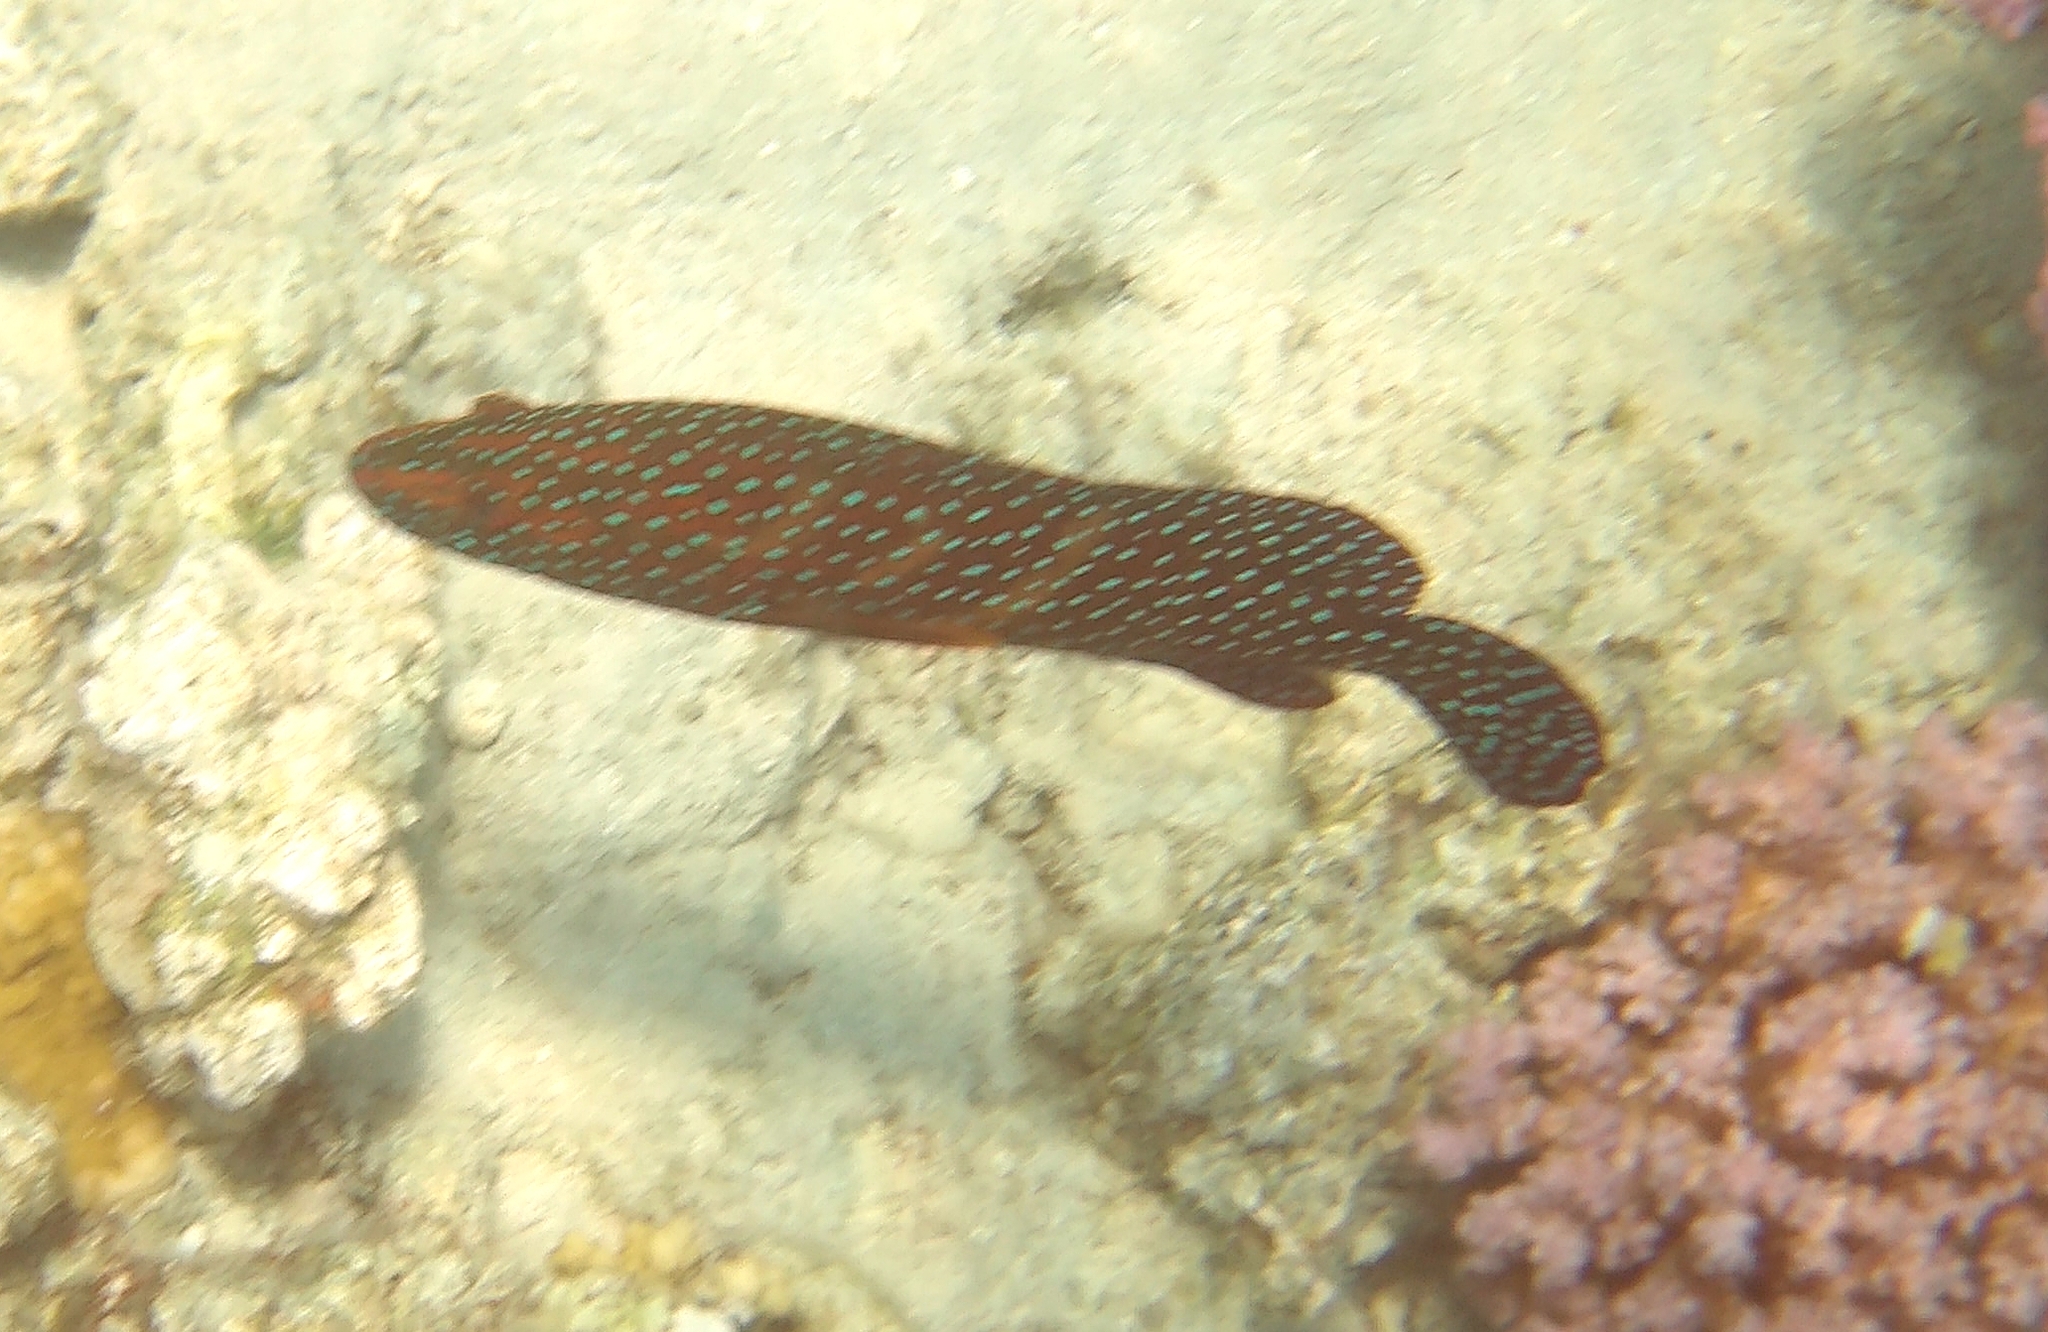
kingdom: Animalia
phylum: Chordata
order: Perciformes
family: Serranidae
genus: Cephalopholis
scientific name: Cephalopholis miniata
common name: Coral hind
